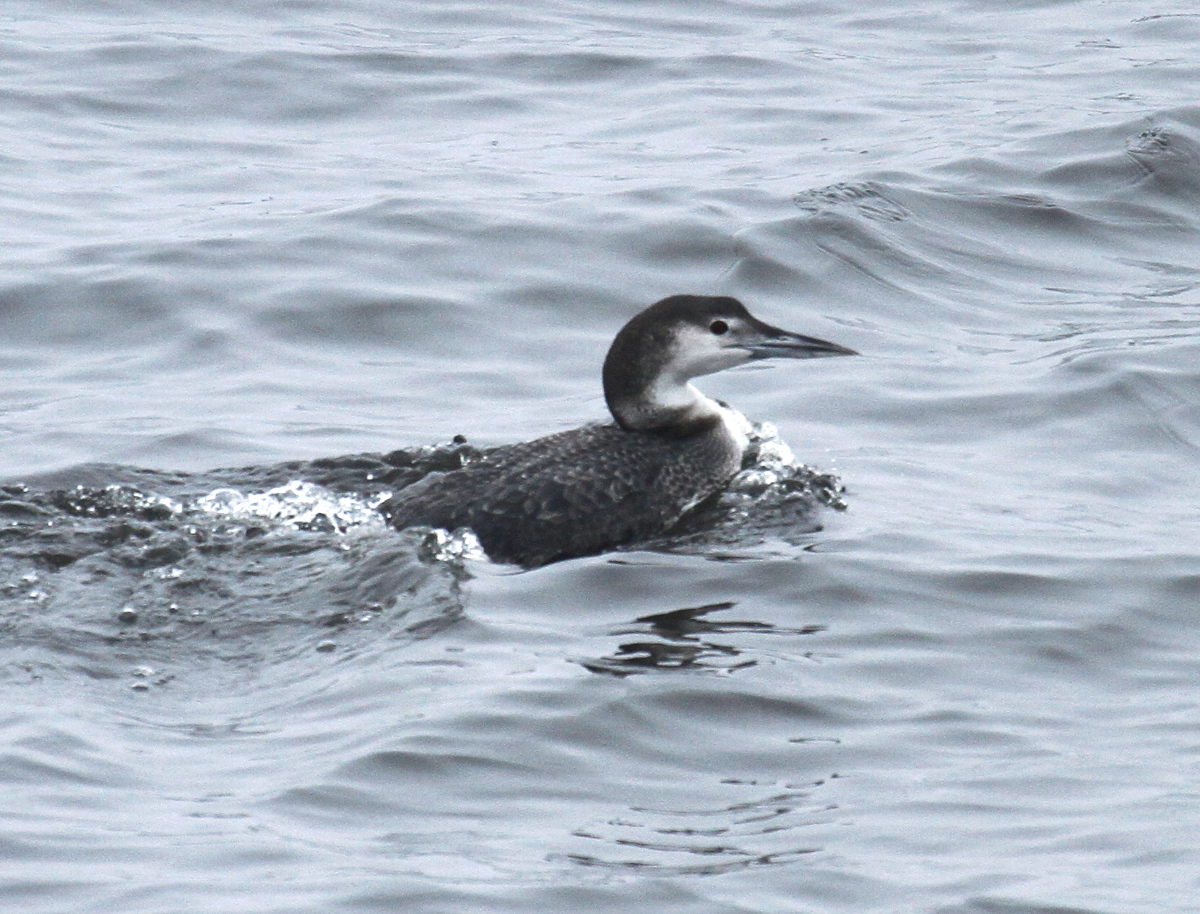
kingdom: Animalia
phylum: Chordata
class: Aves
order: Gaviiformes
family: Gaviidae
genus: Gavia
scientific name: Gavia immer
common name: Common loon
